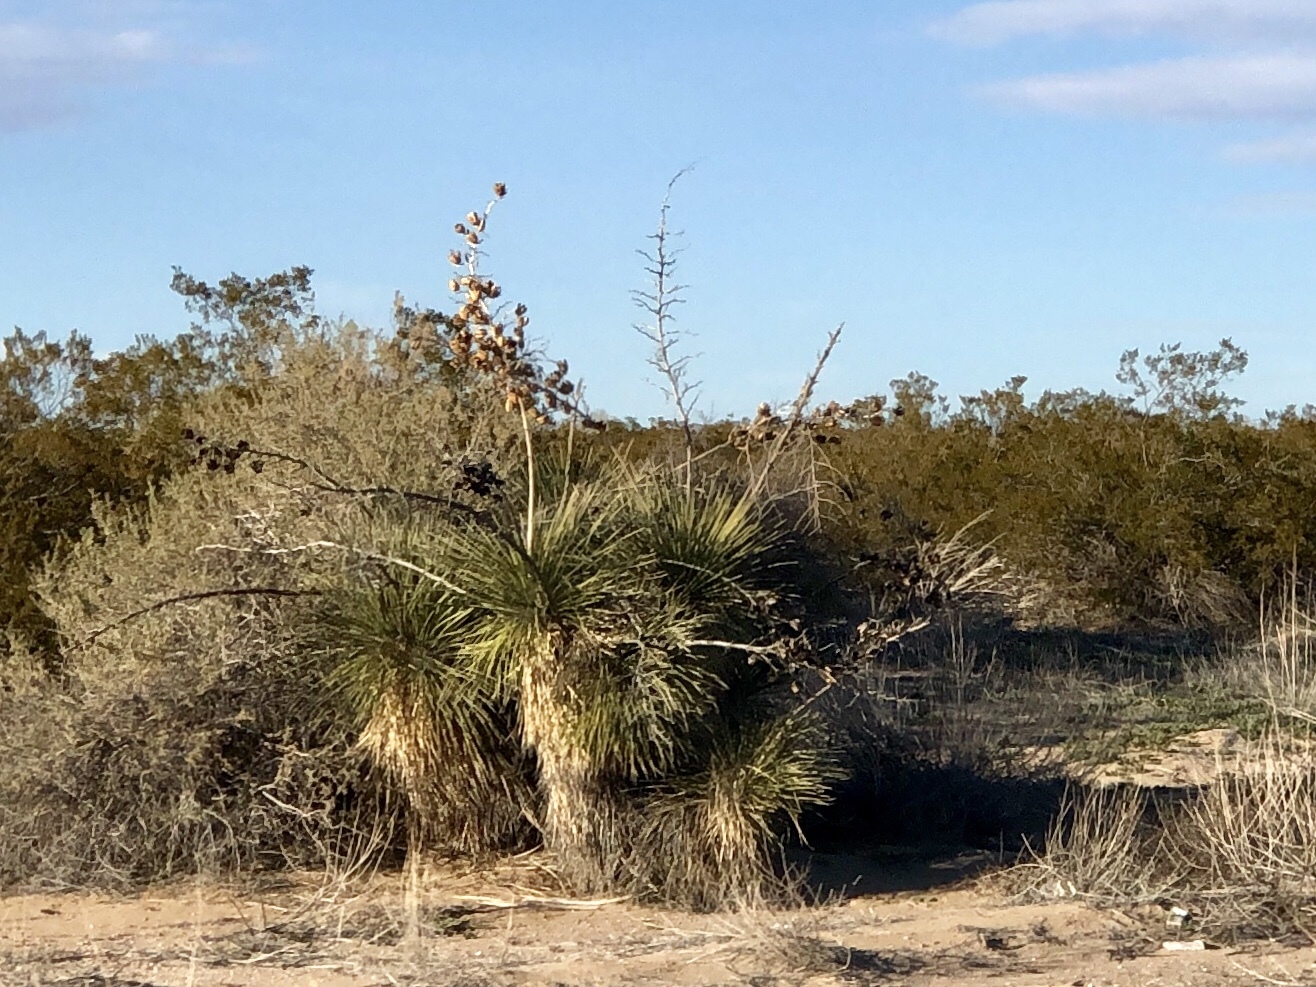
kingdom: Plantae
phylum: Tracheophyta
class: Liliopsida
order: Asparagales
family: Asparagaceae
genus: Yucca
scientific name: Yucca elata
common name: Palmella
